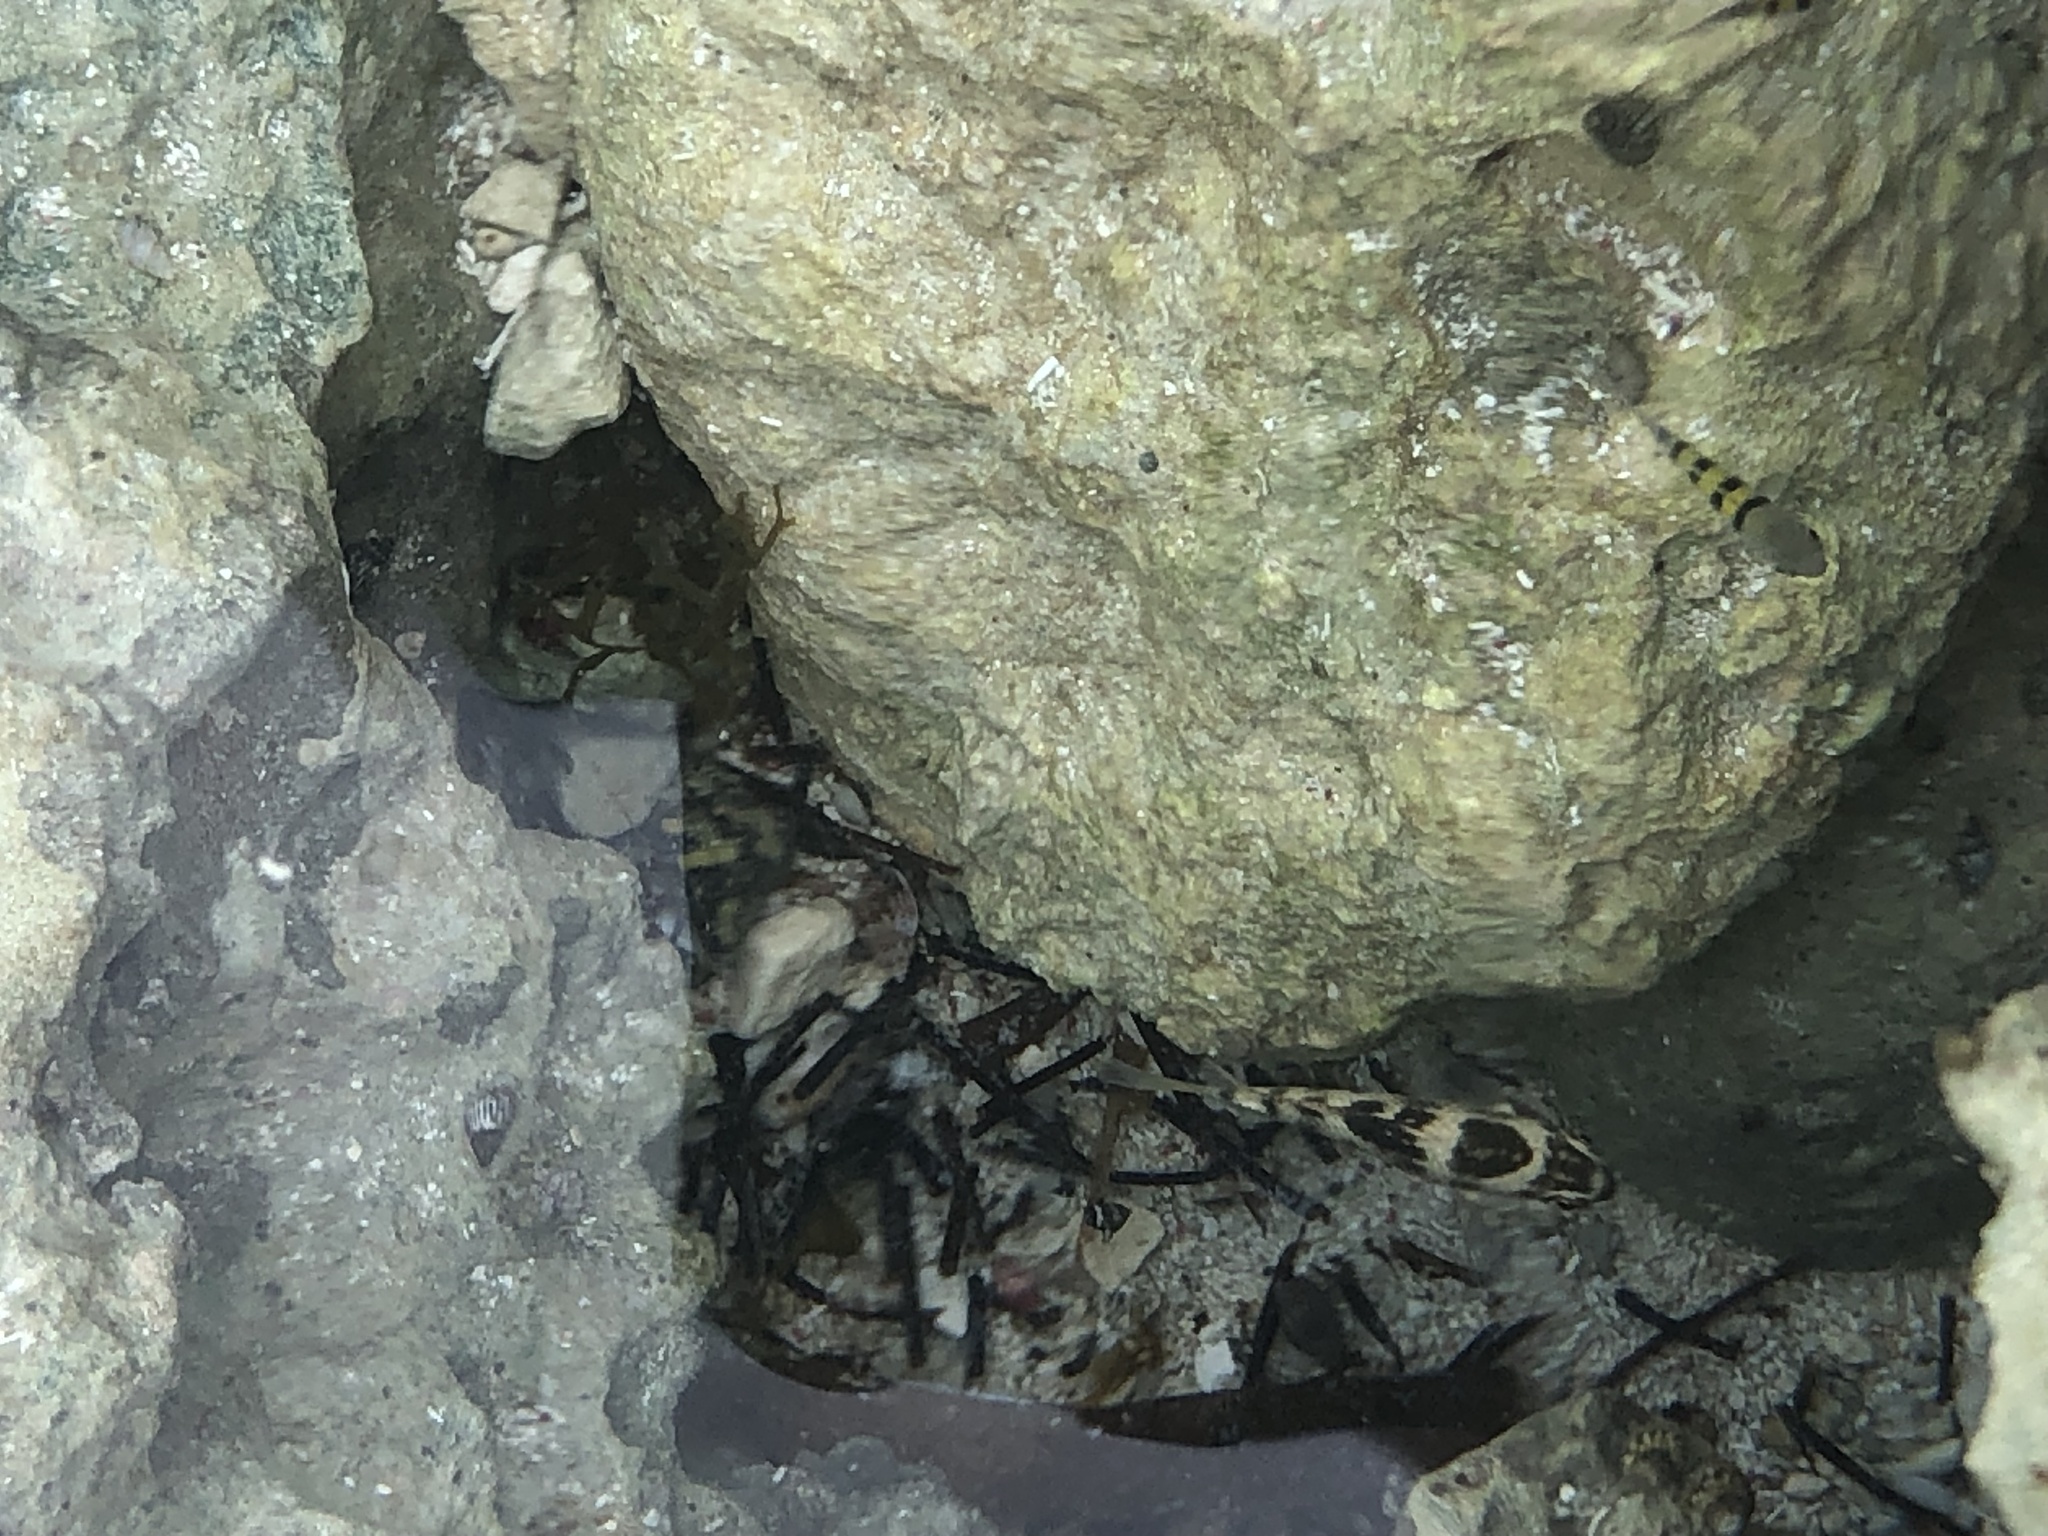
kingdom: Animalia
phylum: Chordata
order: Perciformes
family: Pomacentridae
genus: Abudefduf
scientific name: Abudefduf taurus
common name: Night sergeant
